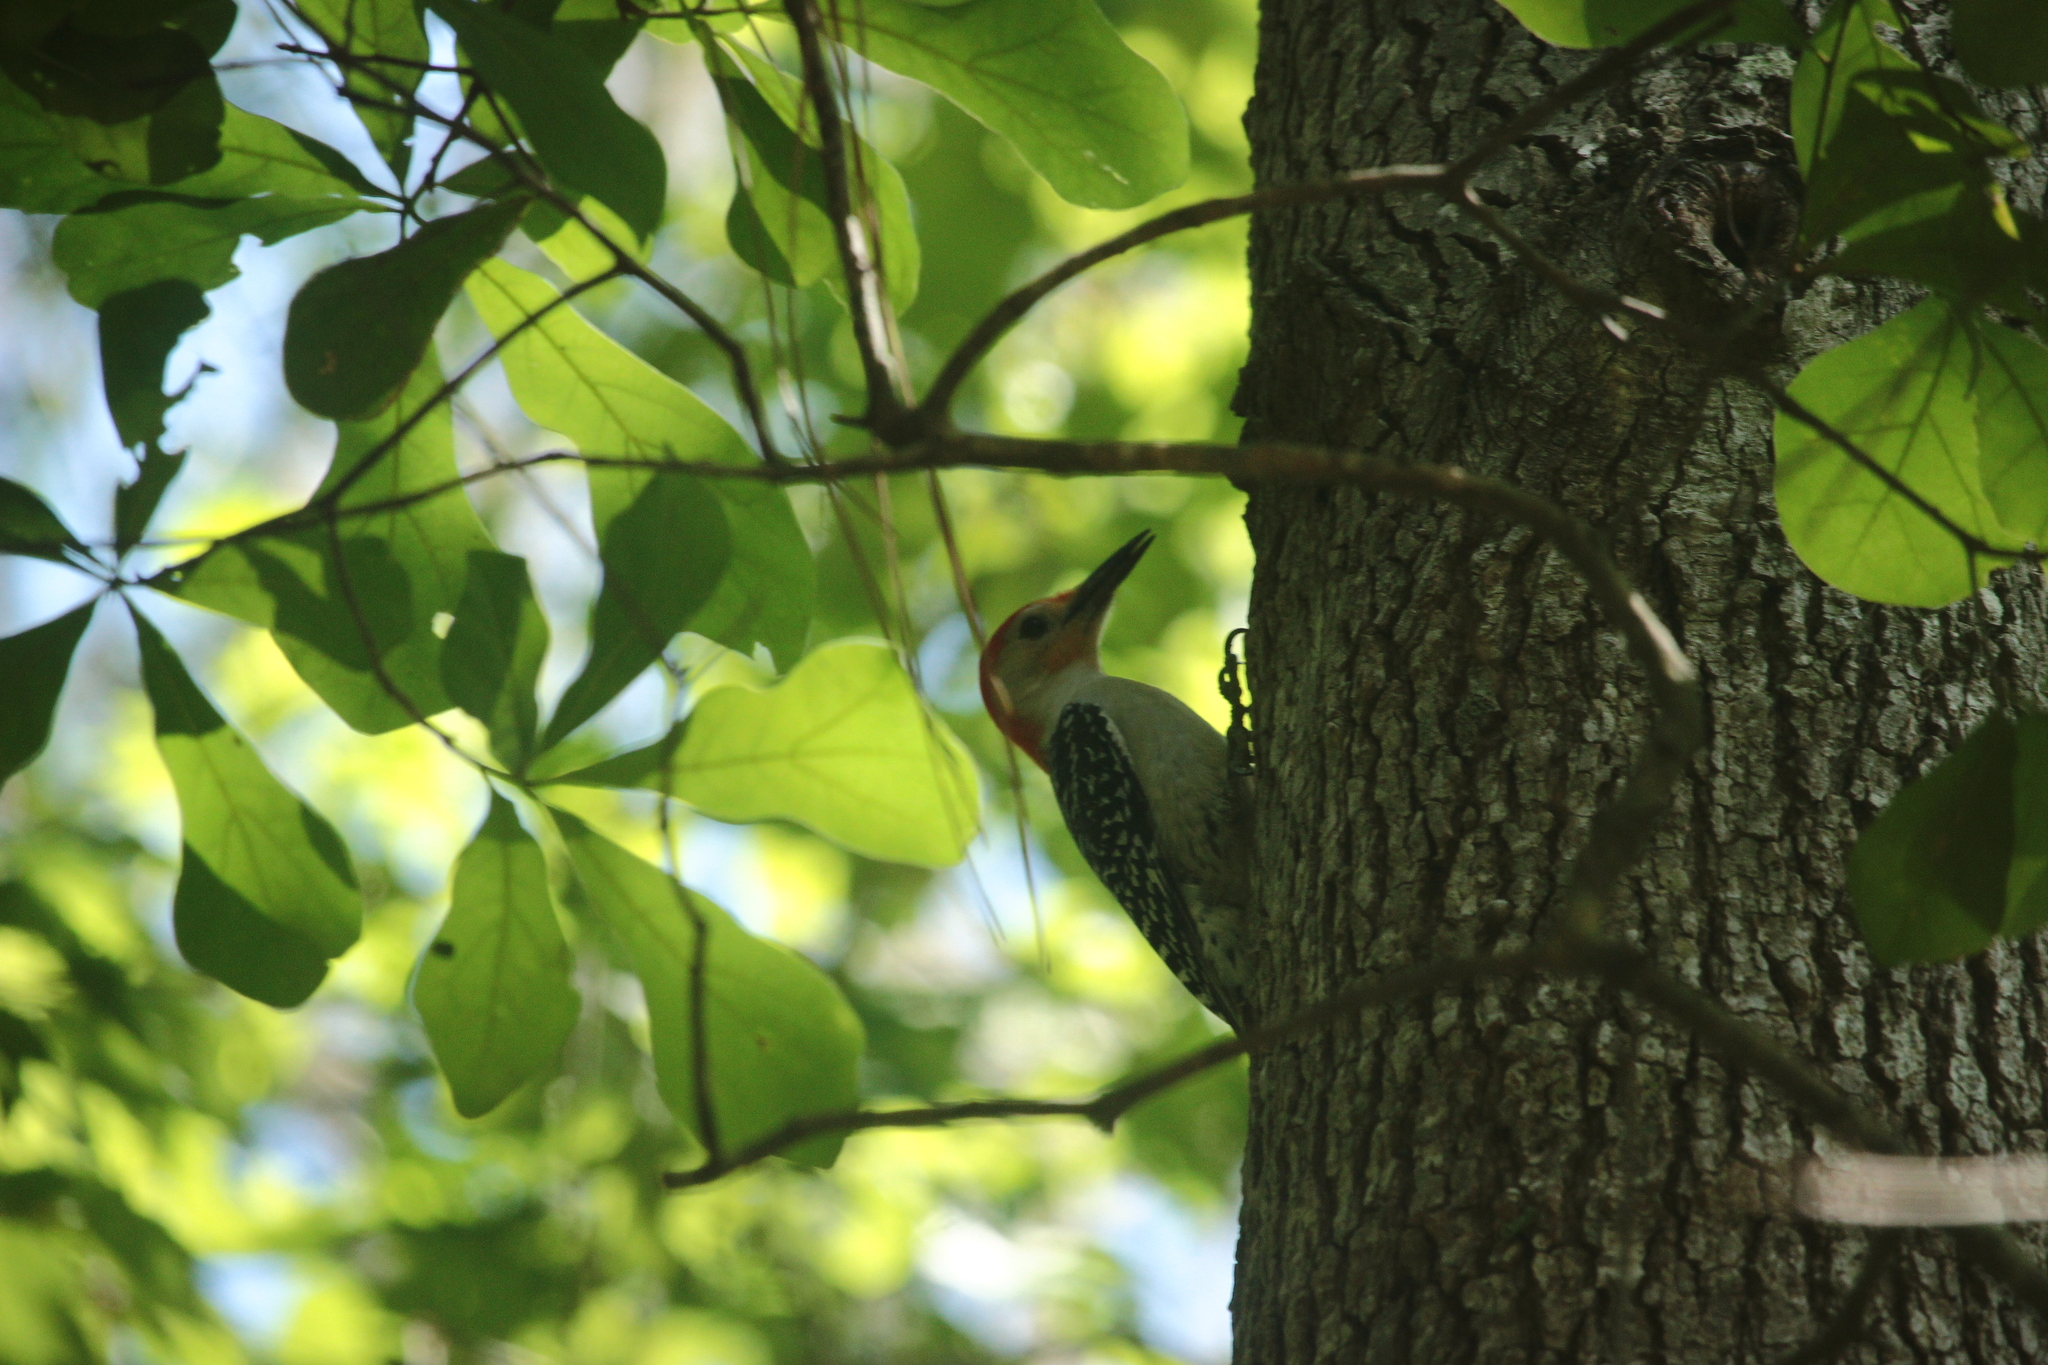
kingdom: Animalia
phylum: Chordata
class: Aves
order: Piciformes
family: Picidae
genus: Melanerpes
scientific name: Melanerpes carolinus
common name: Red-bellied woodpecker
